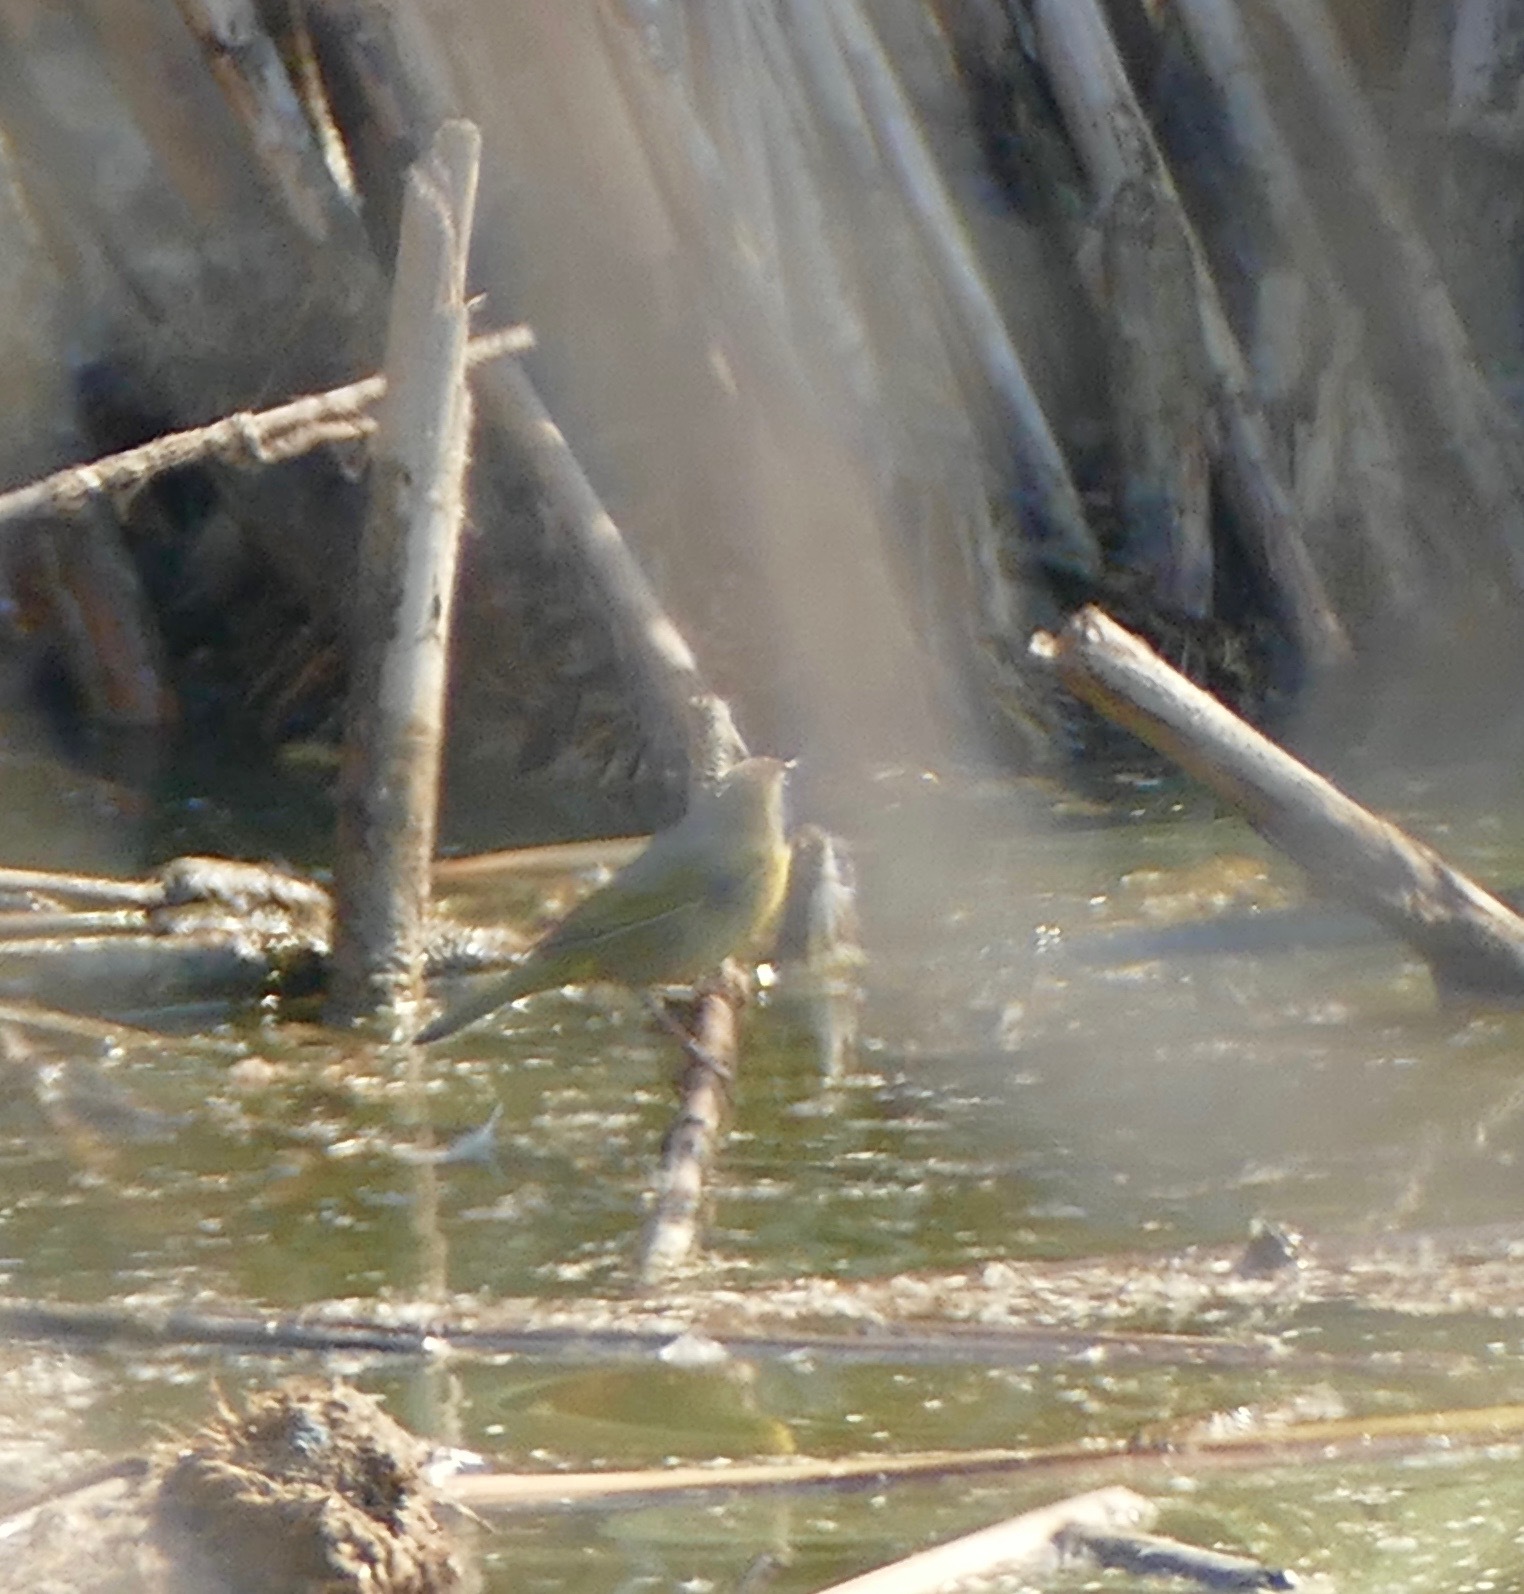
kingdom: Animalia
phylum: Chordata
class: Aves
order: Passeriformes
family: Parulidae
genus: Geothlypis
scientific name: Geothlypis trichas
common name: Common yellowthroat
